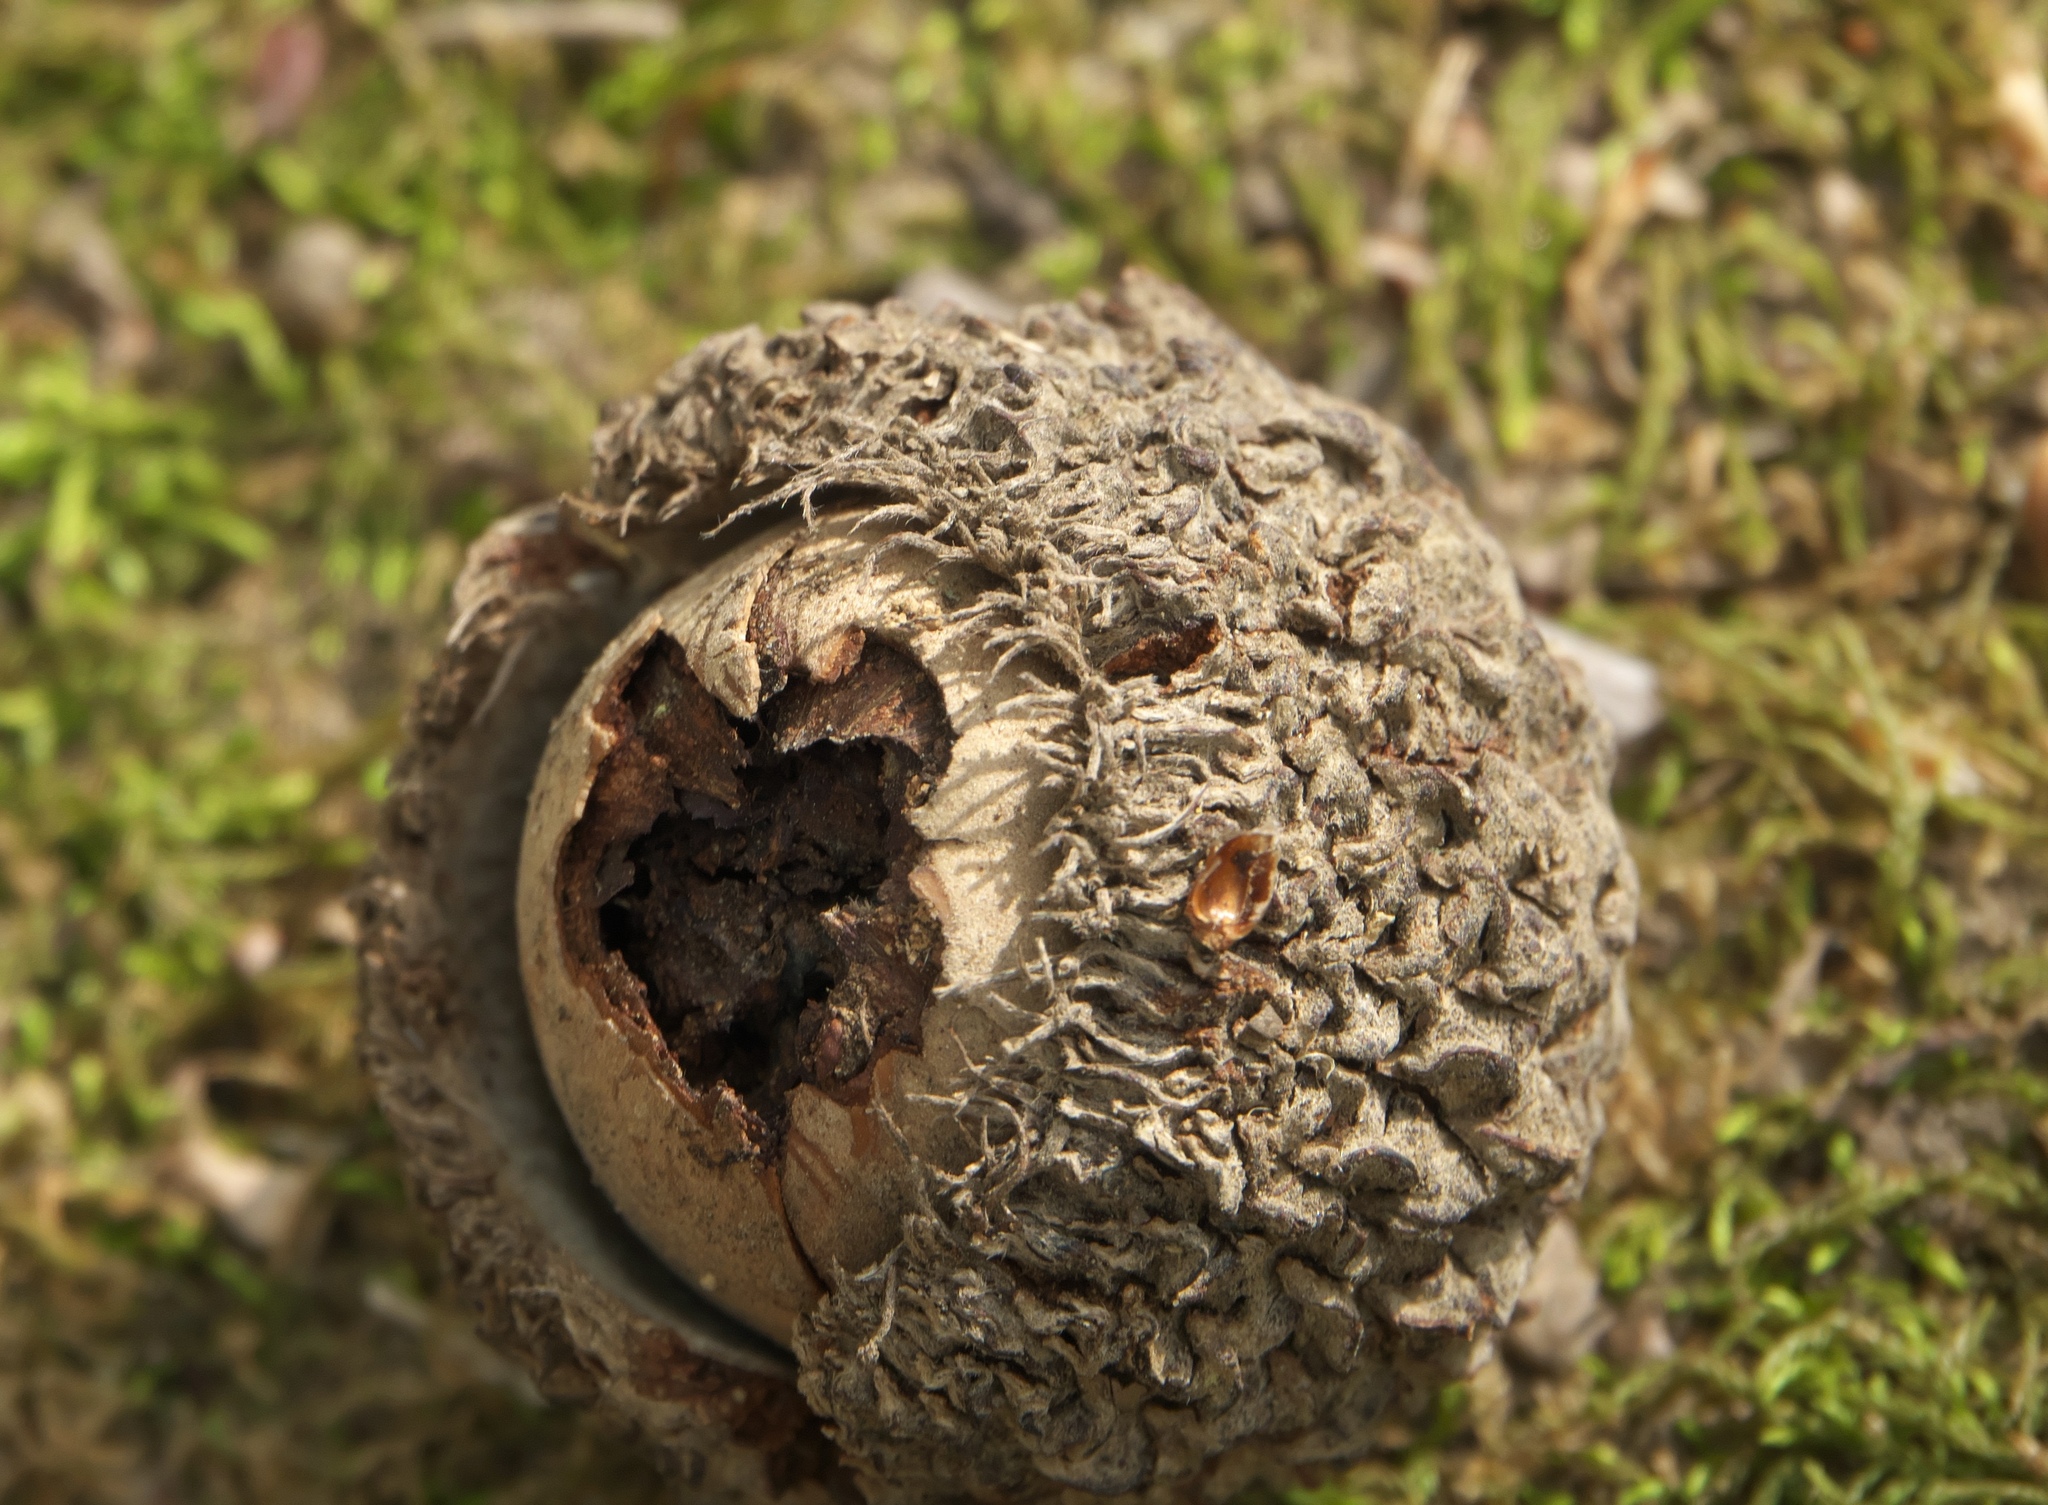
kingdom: Plantae
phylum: Tracheophyta
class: Magnoliopsida
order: Fagales
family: Fagaceae
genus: Quercus
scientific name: Quercus lyrata
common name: Overcup oak
